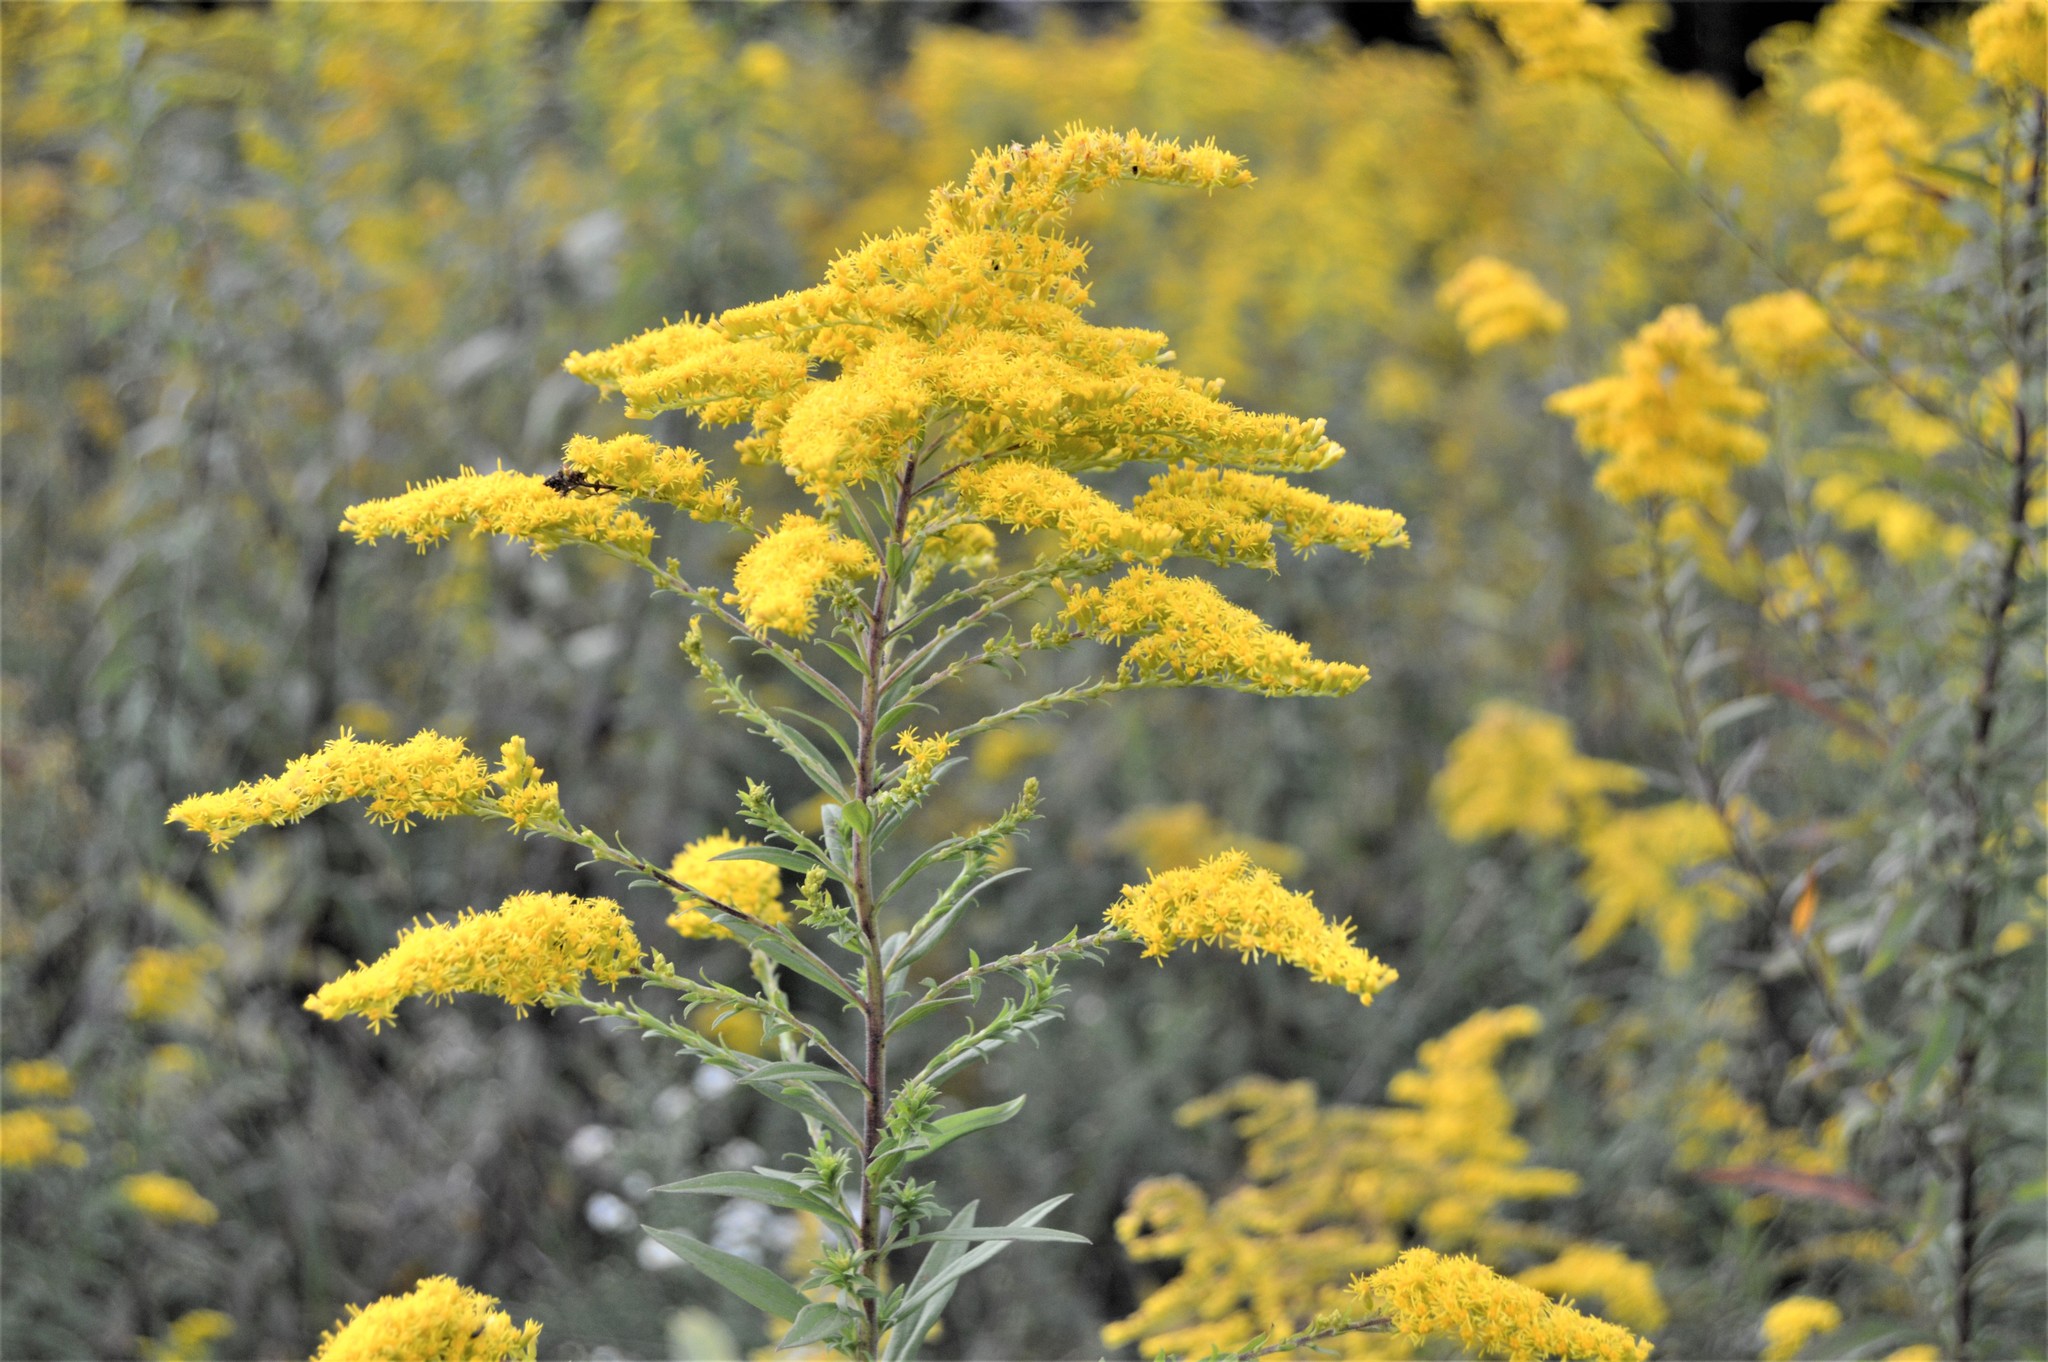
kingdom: Plantae
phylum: Tracheophyta
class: Magnoliopsida
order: Asterales
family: Asteraceae
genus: Solidago
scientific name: Solidago altissima
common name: Late goldenrod
